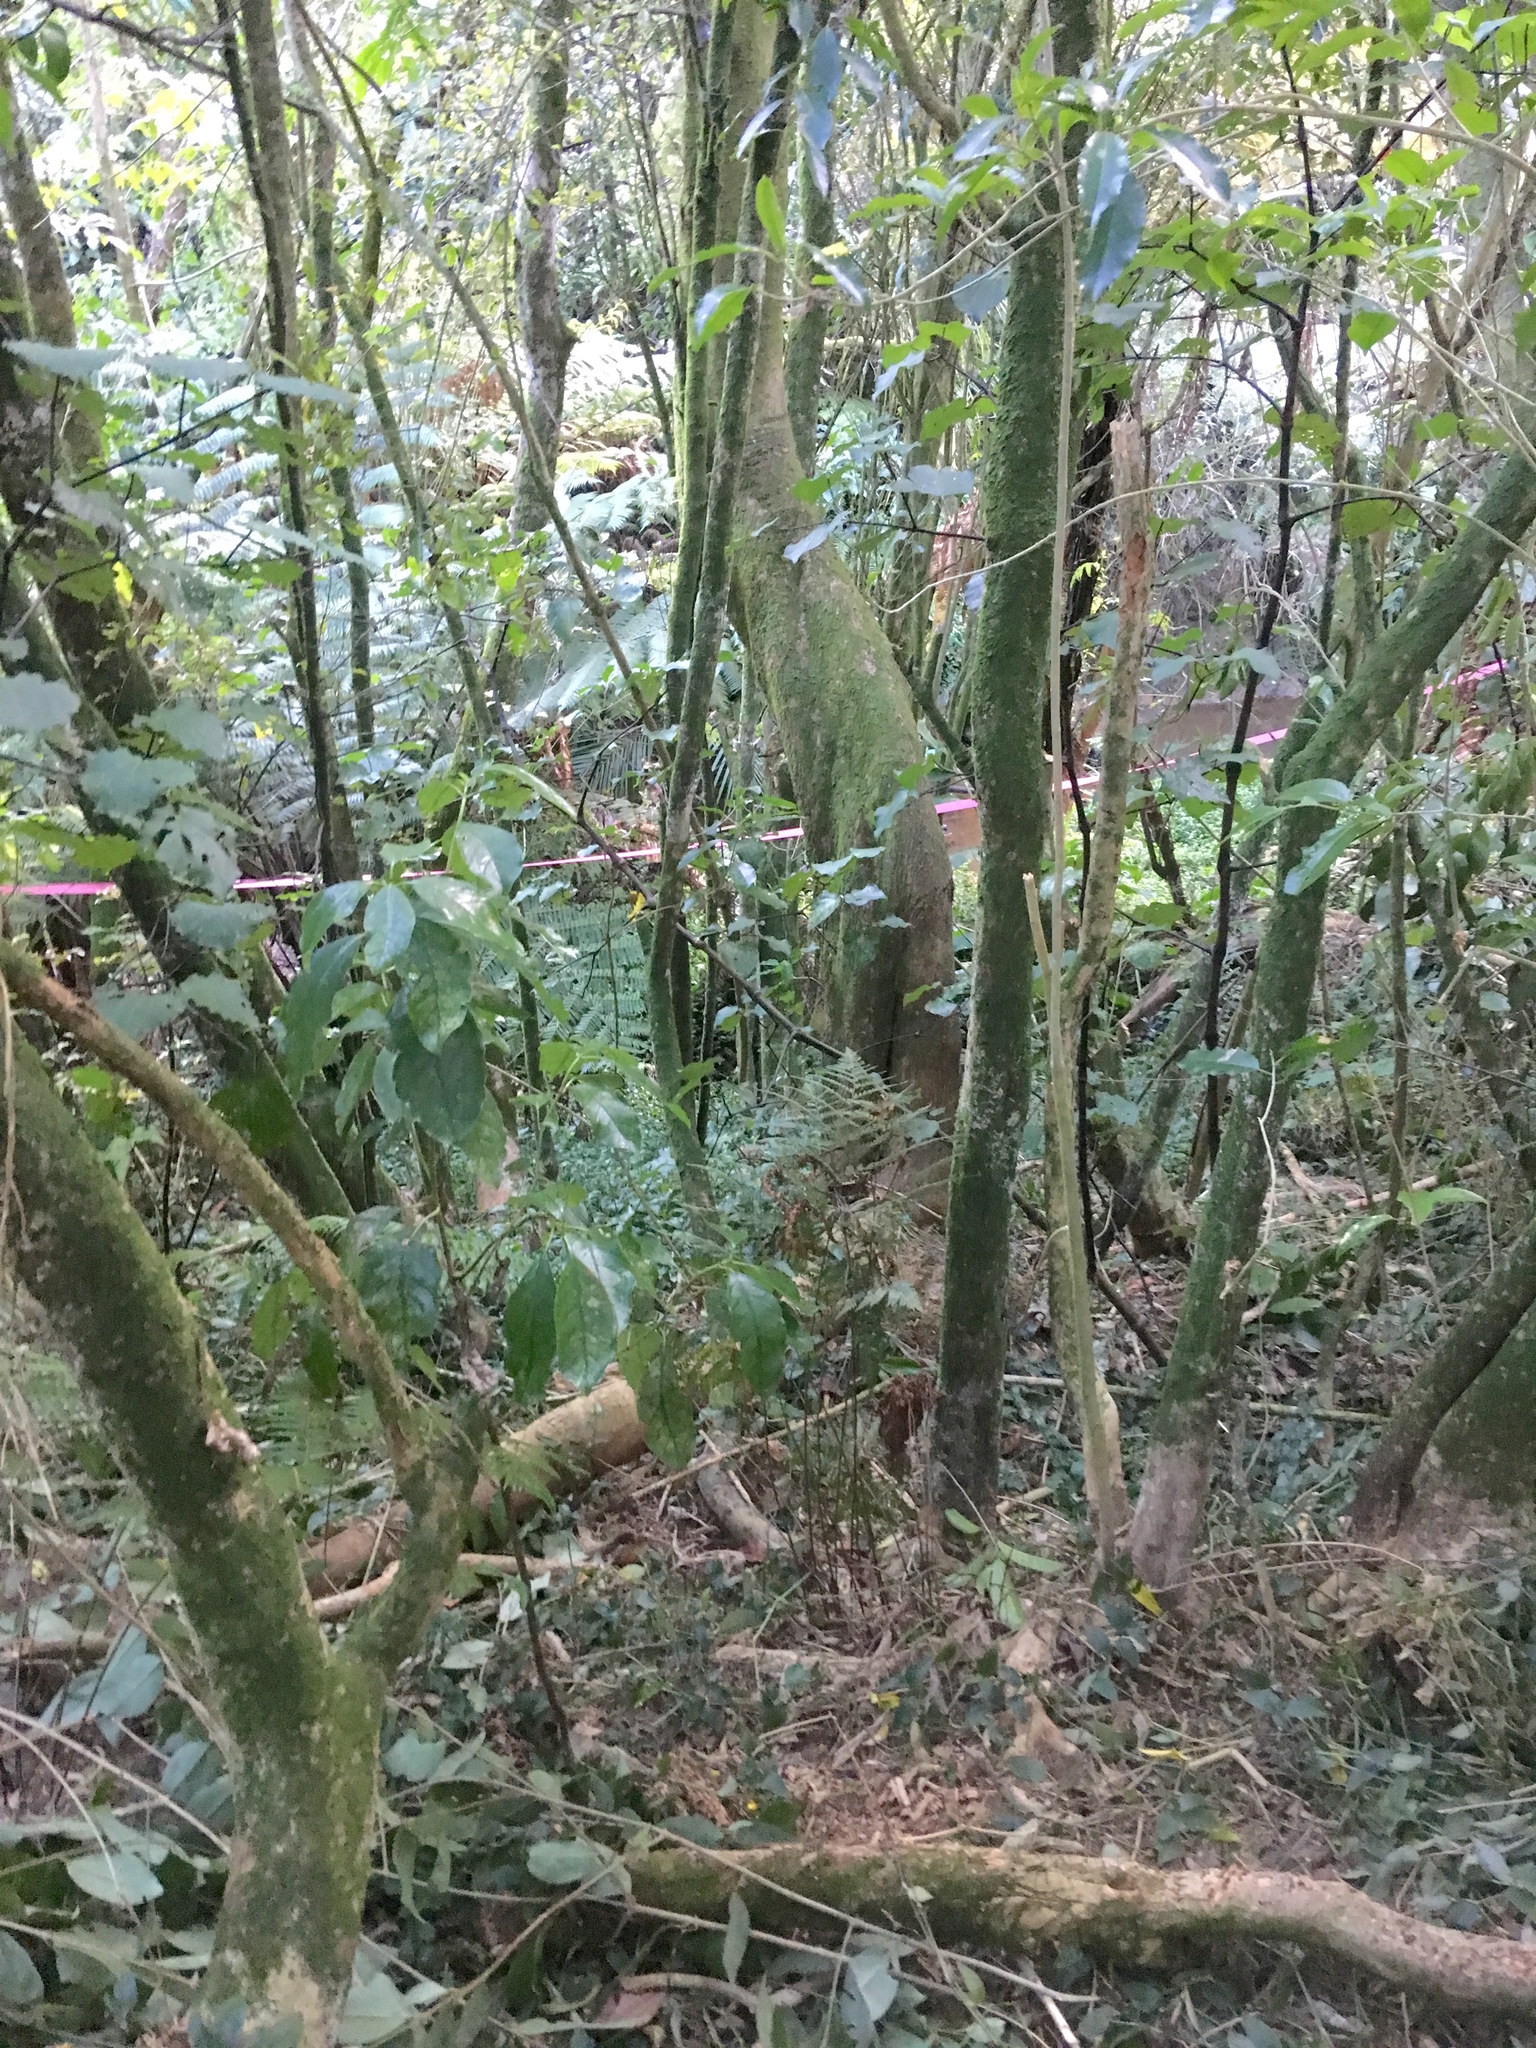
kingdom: Plantae
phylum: Tracheophyta
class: Magnoliopsida
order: Lamiales
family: Oleaceae
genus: Ligustrum
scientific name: Ligustrum lucidum
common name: Glossy privet
